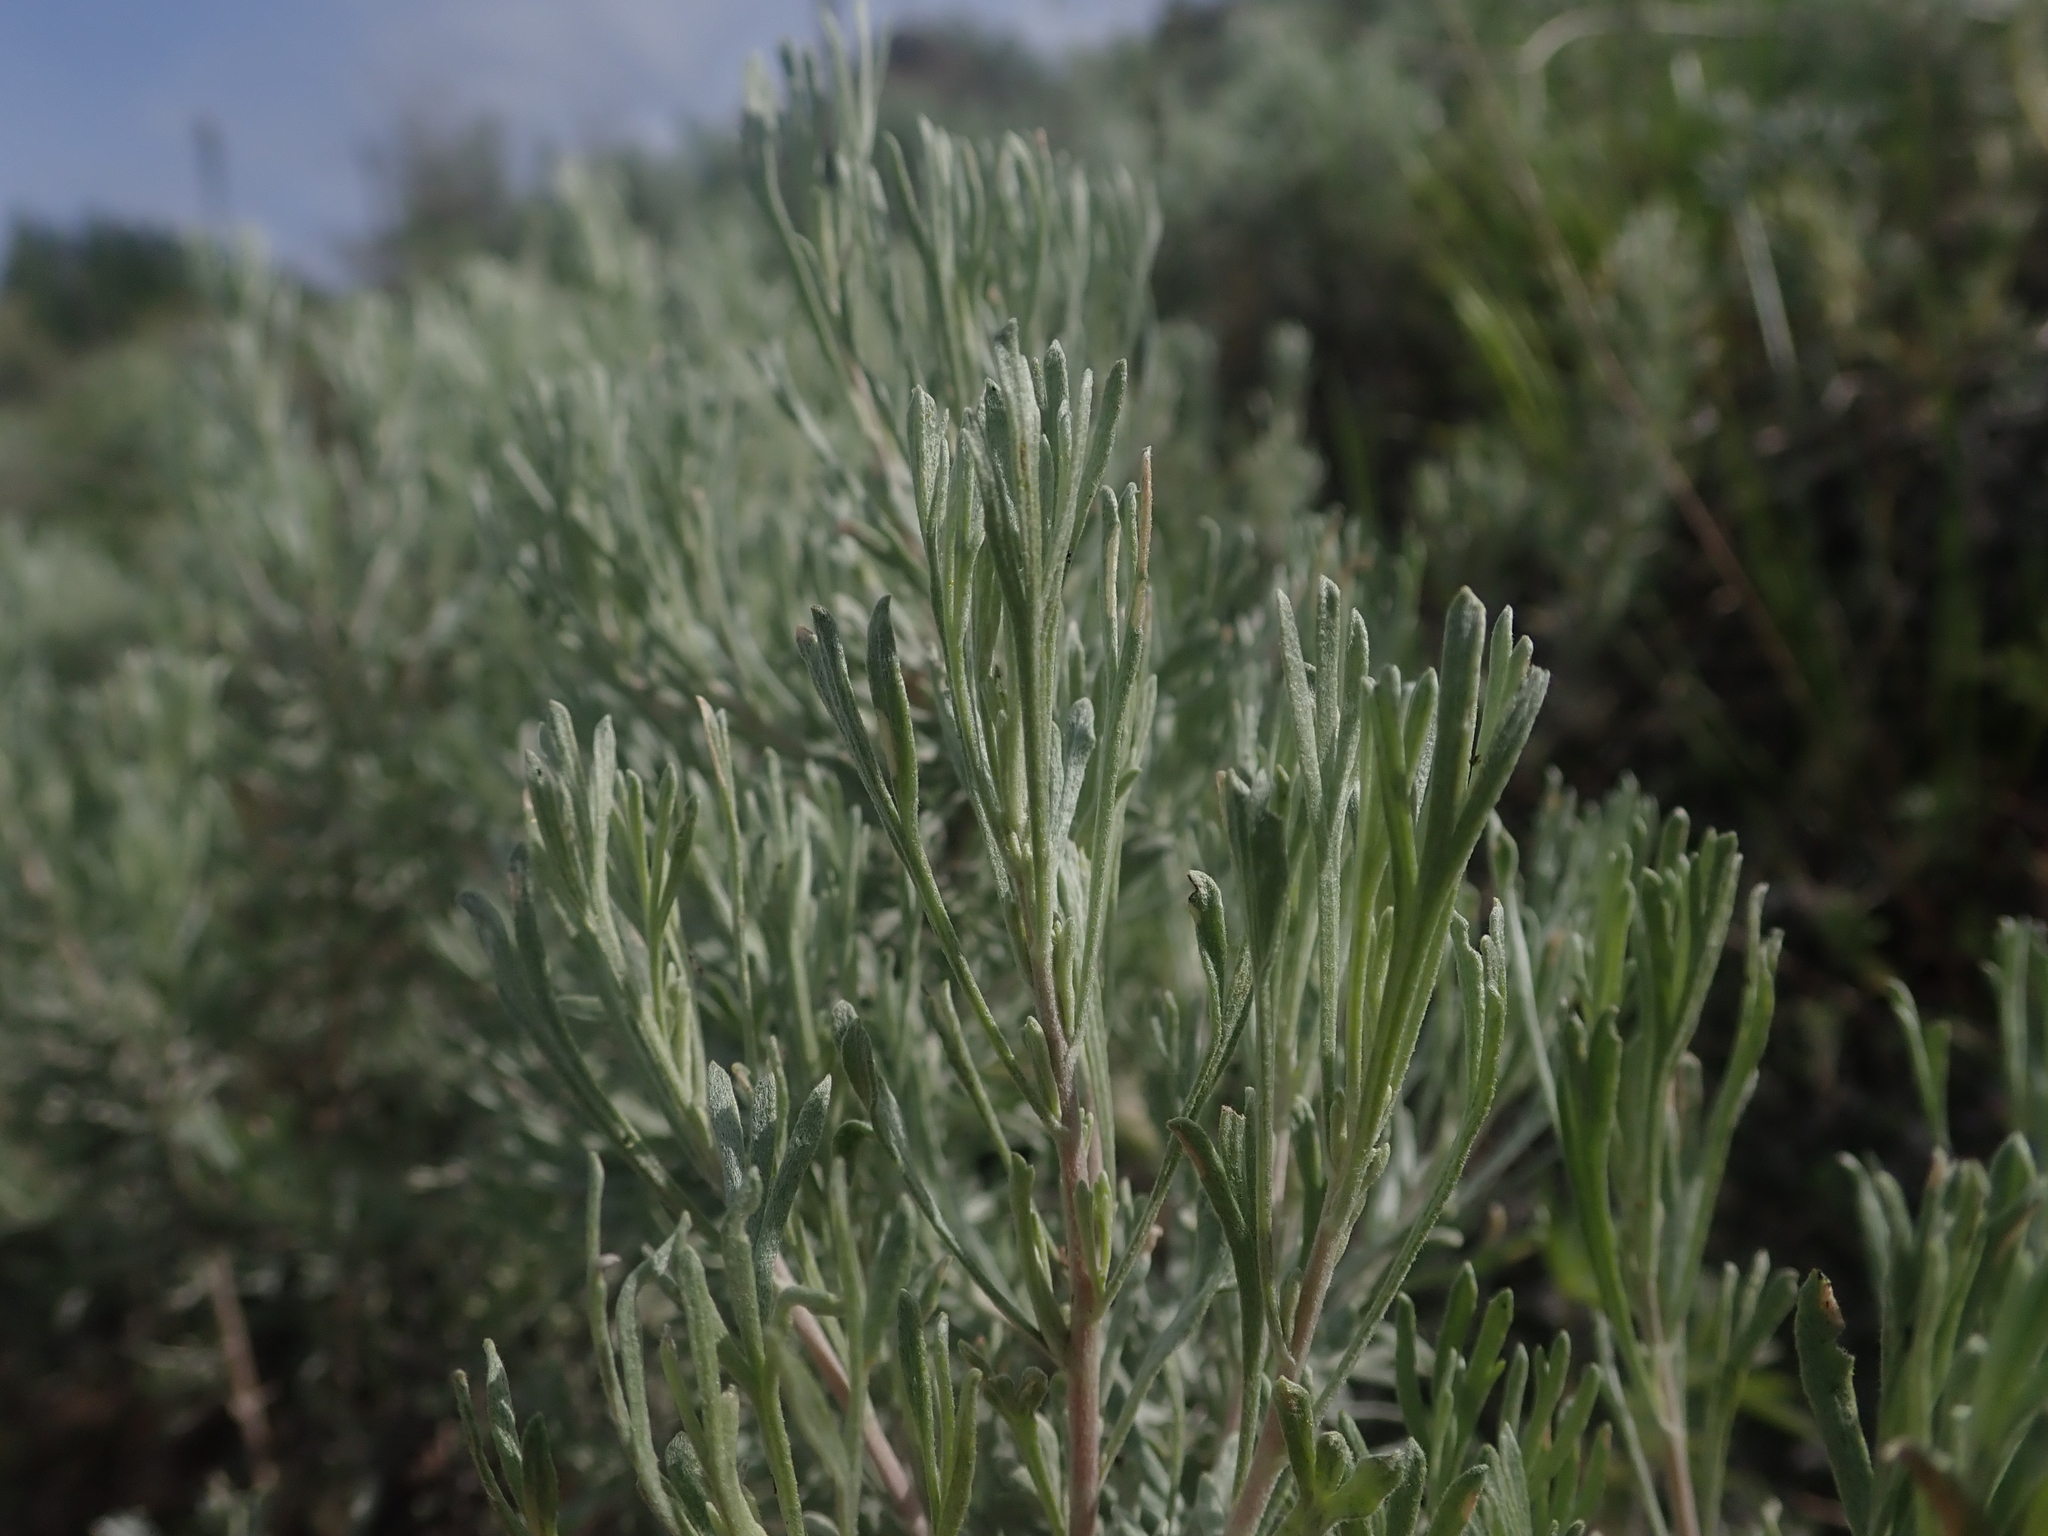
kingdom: Plantae
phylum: Tracheophyta
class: Magnoliopsida
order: Asterales
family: Asteraceae
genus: Artemisia
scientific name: Artemisia tripartita
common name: Three-tip sagebrush
